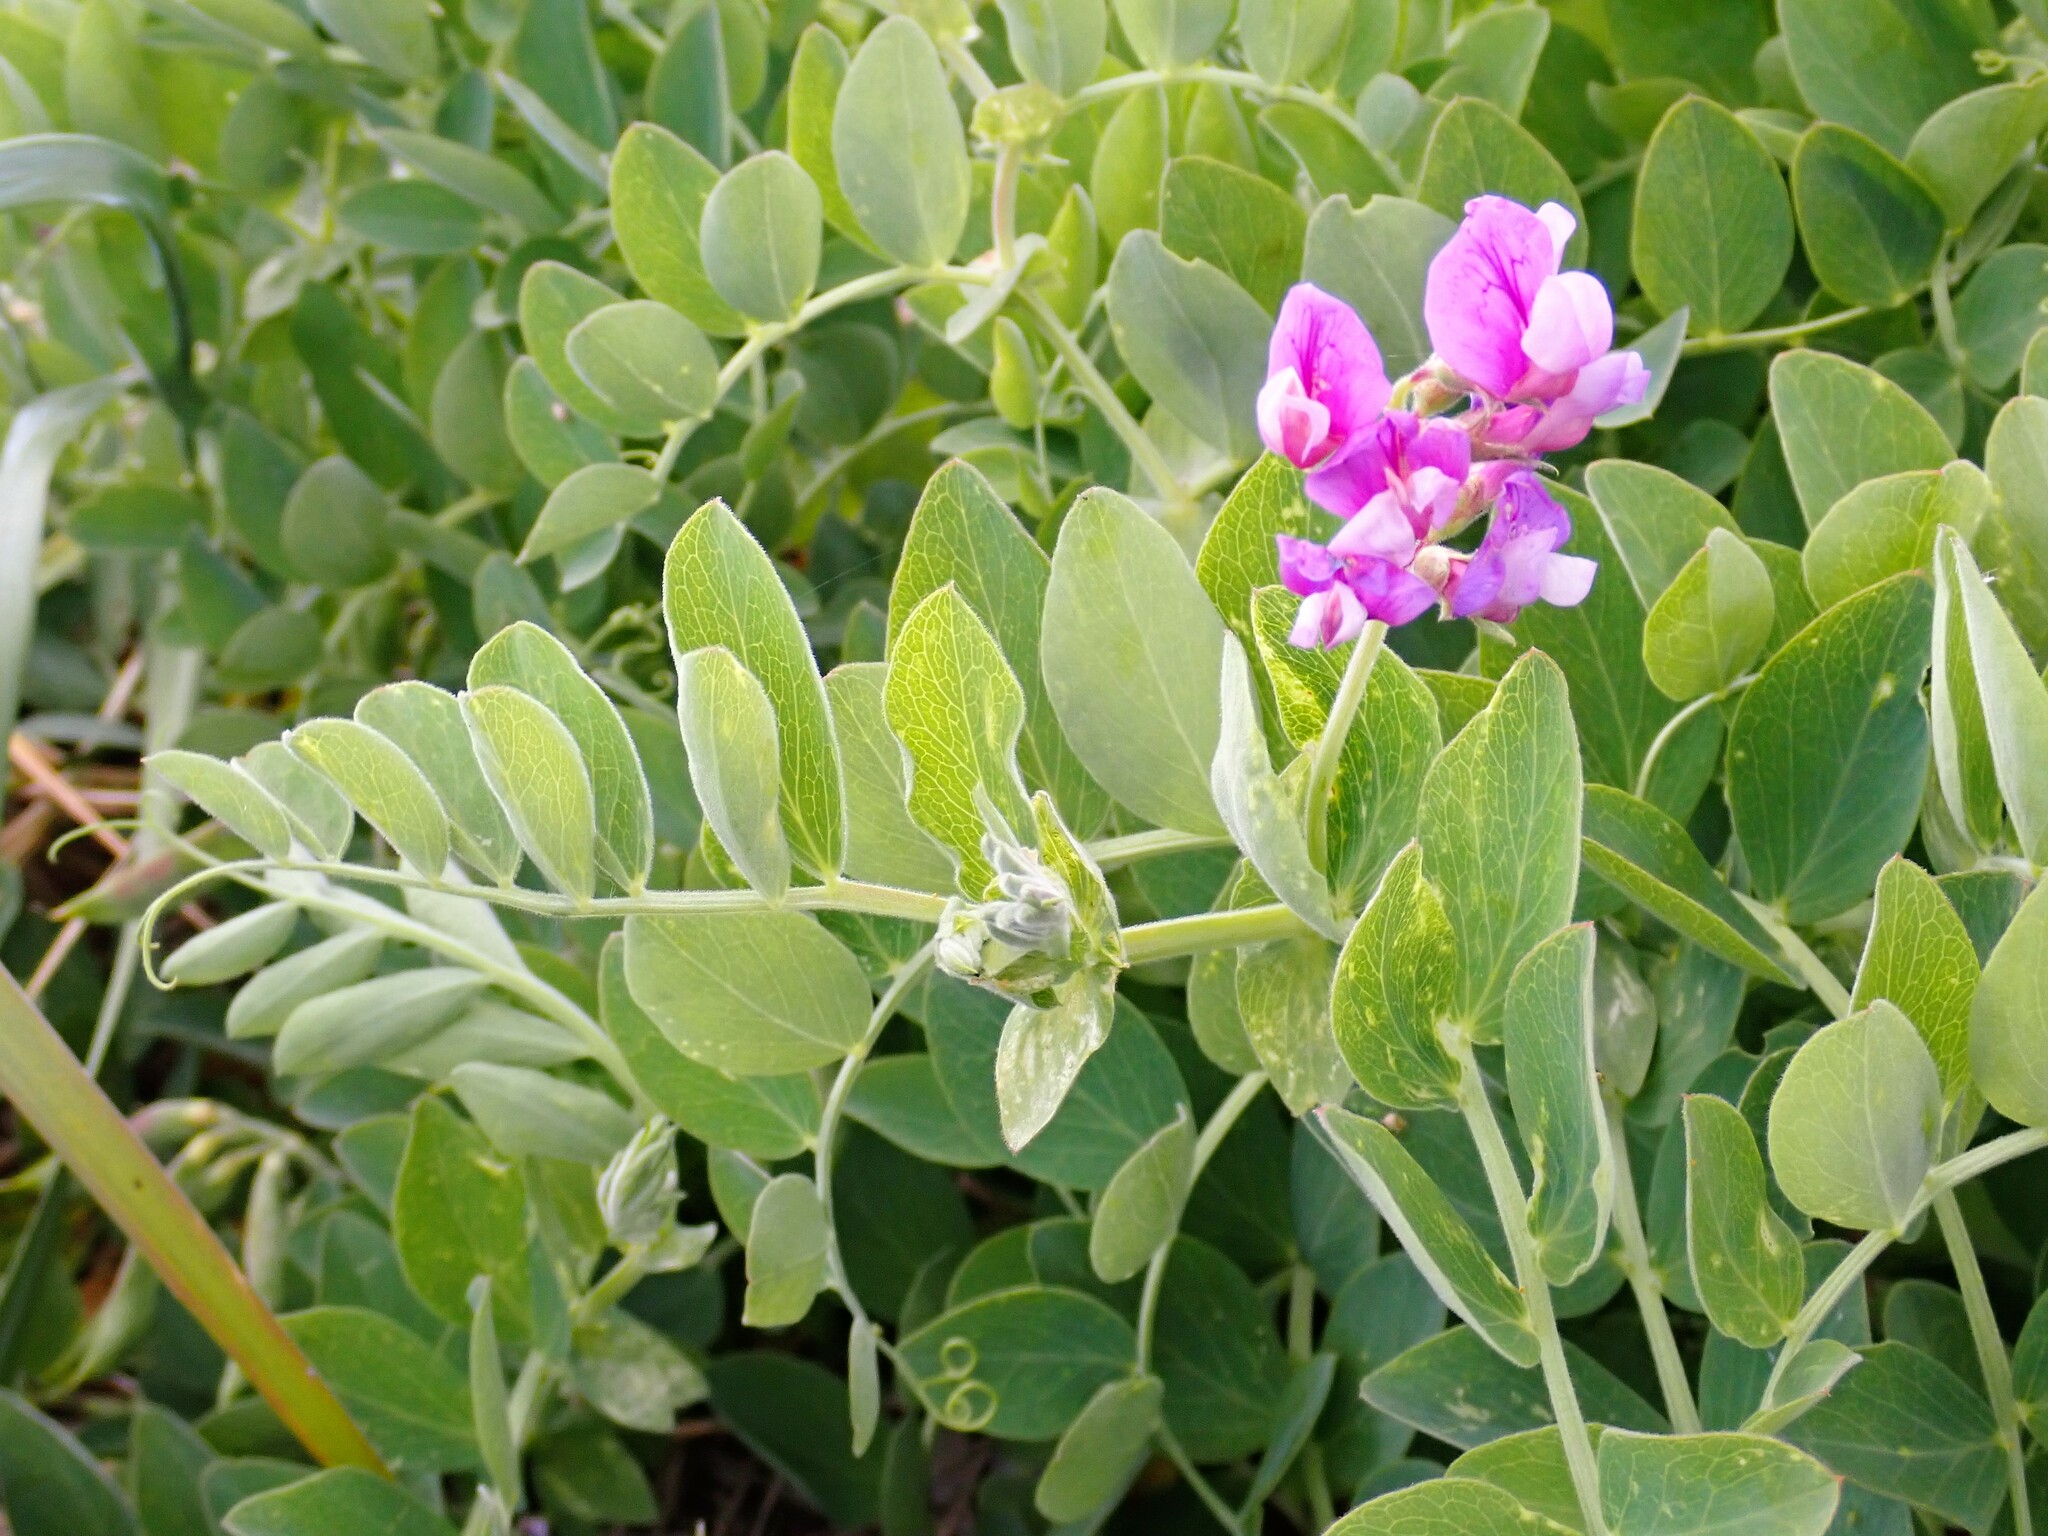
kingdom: Plantae
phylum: Tracheophyta
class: Magnoliopsida
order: Fabales
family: Fabaceae
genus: Lathyrus
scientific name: Lathyrus japonicus
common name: Sea pea
